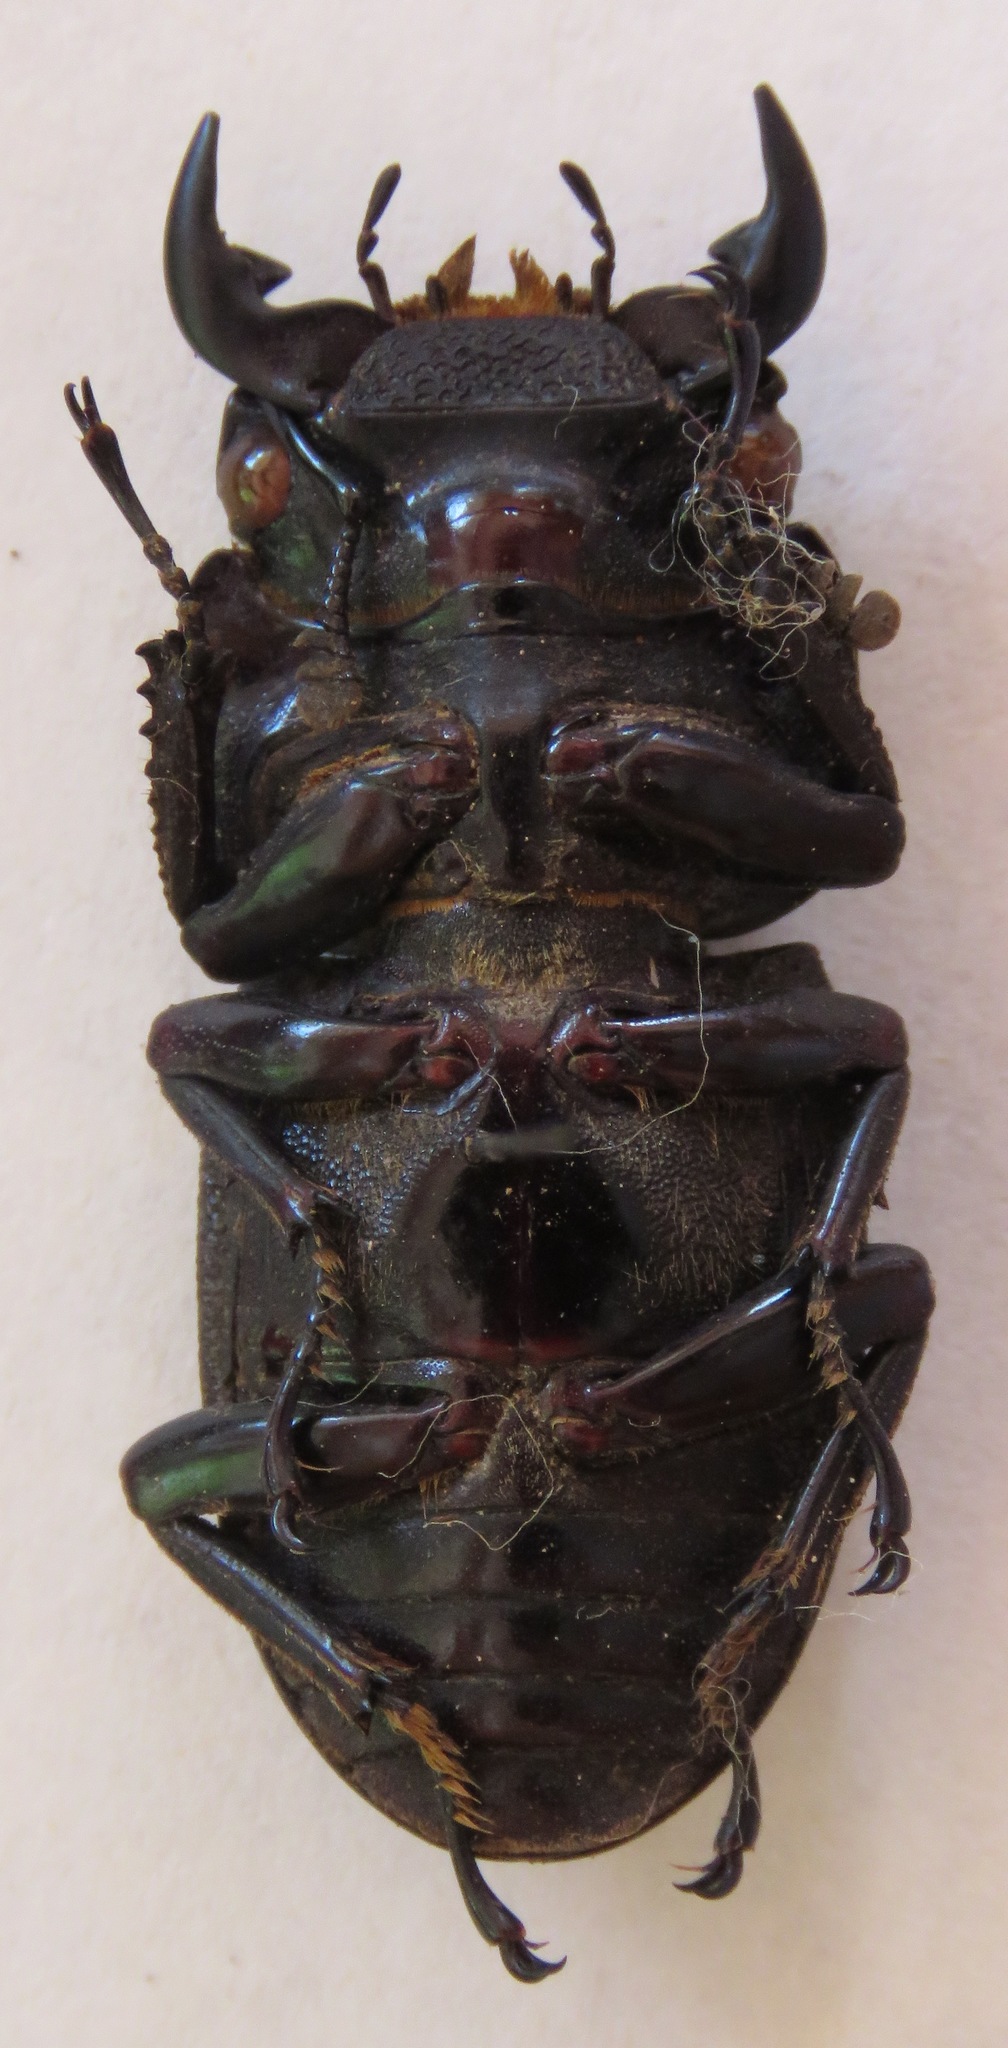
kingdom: Animalia
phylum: Arthropoda
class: Insecta
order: Coleoptera
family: Lucanidae
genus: Dorcus
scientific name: Dorcus curvidens
